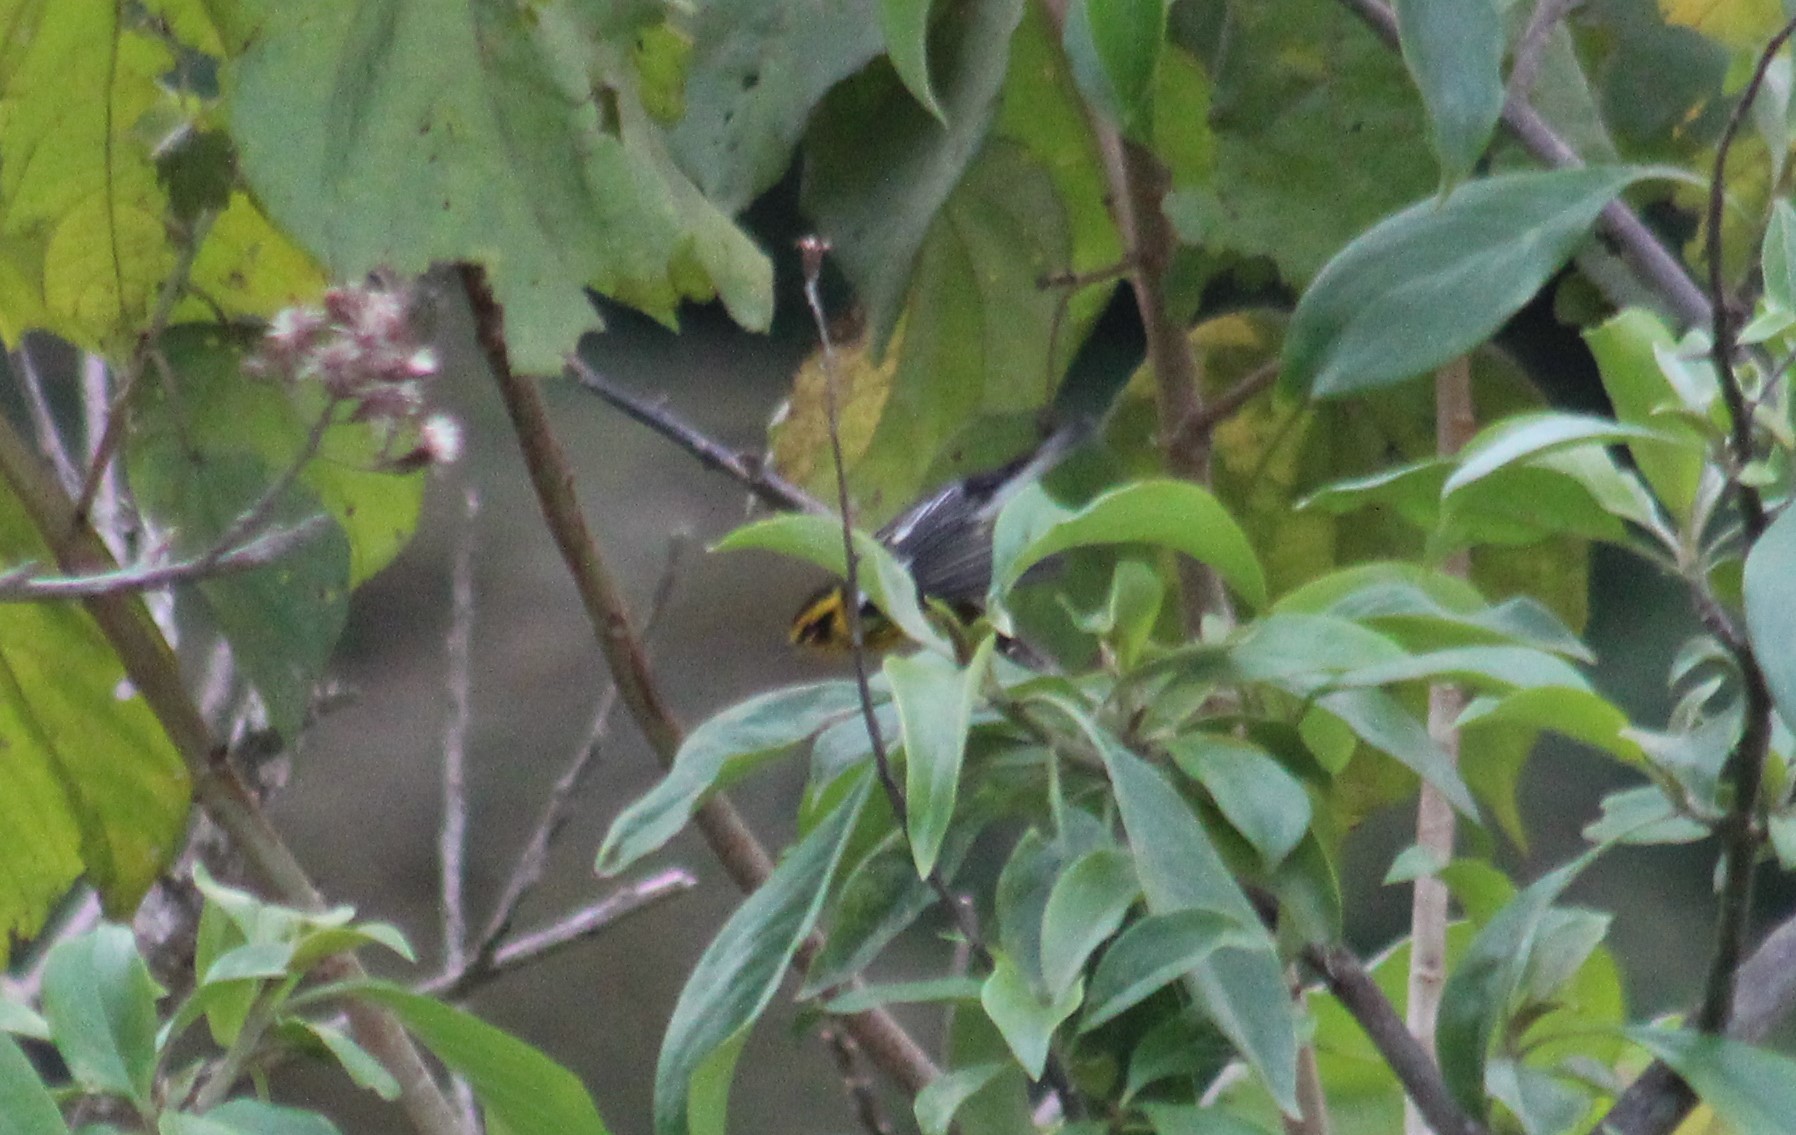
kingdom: Animalia
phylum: Chordata
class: Aves
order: Passeriformes
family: Parulidae
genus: Setophaga
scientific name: Setophaga fusca
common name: Blackburnian warbler
